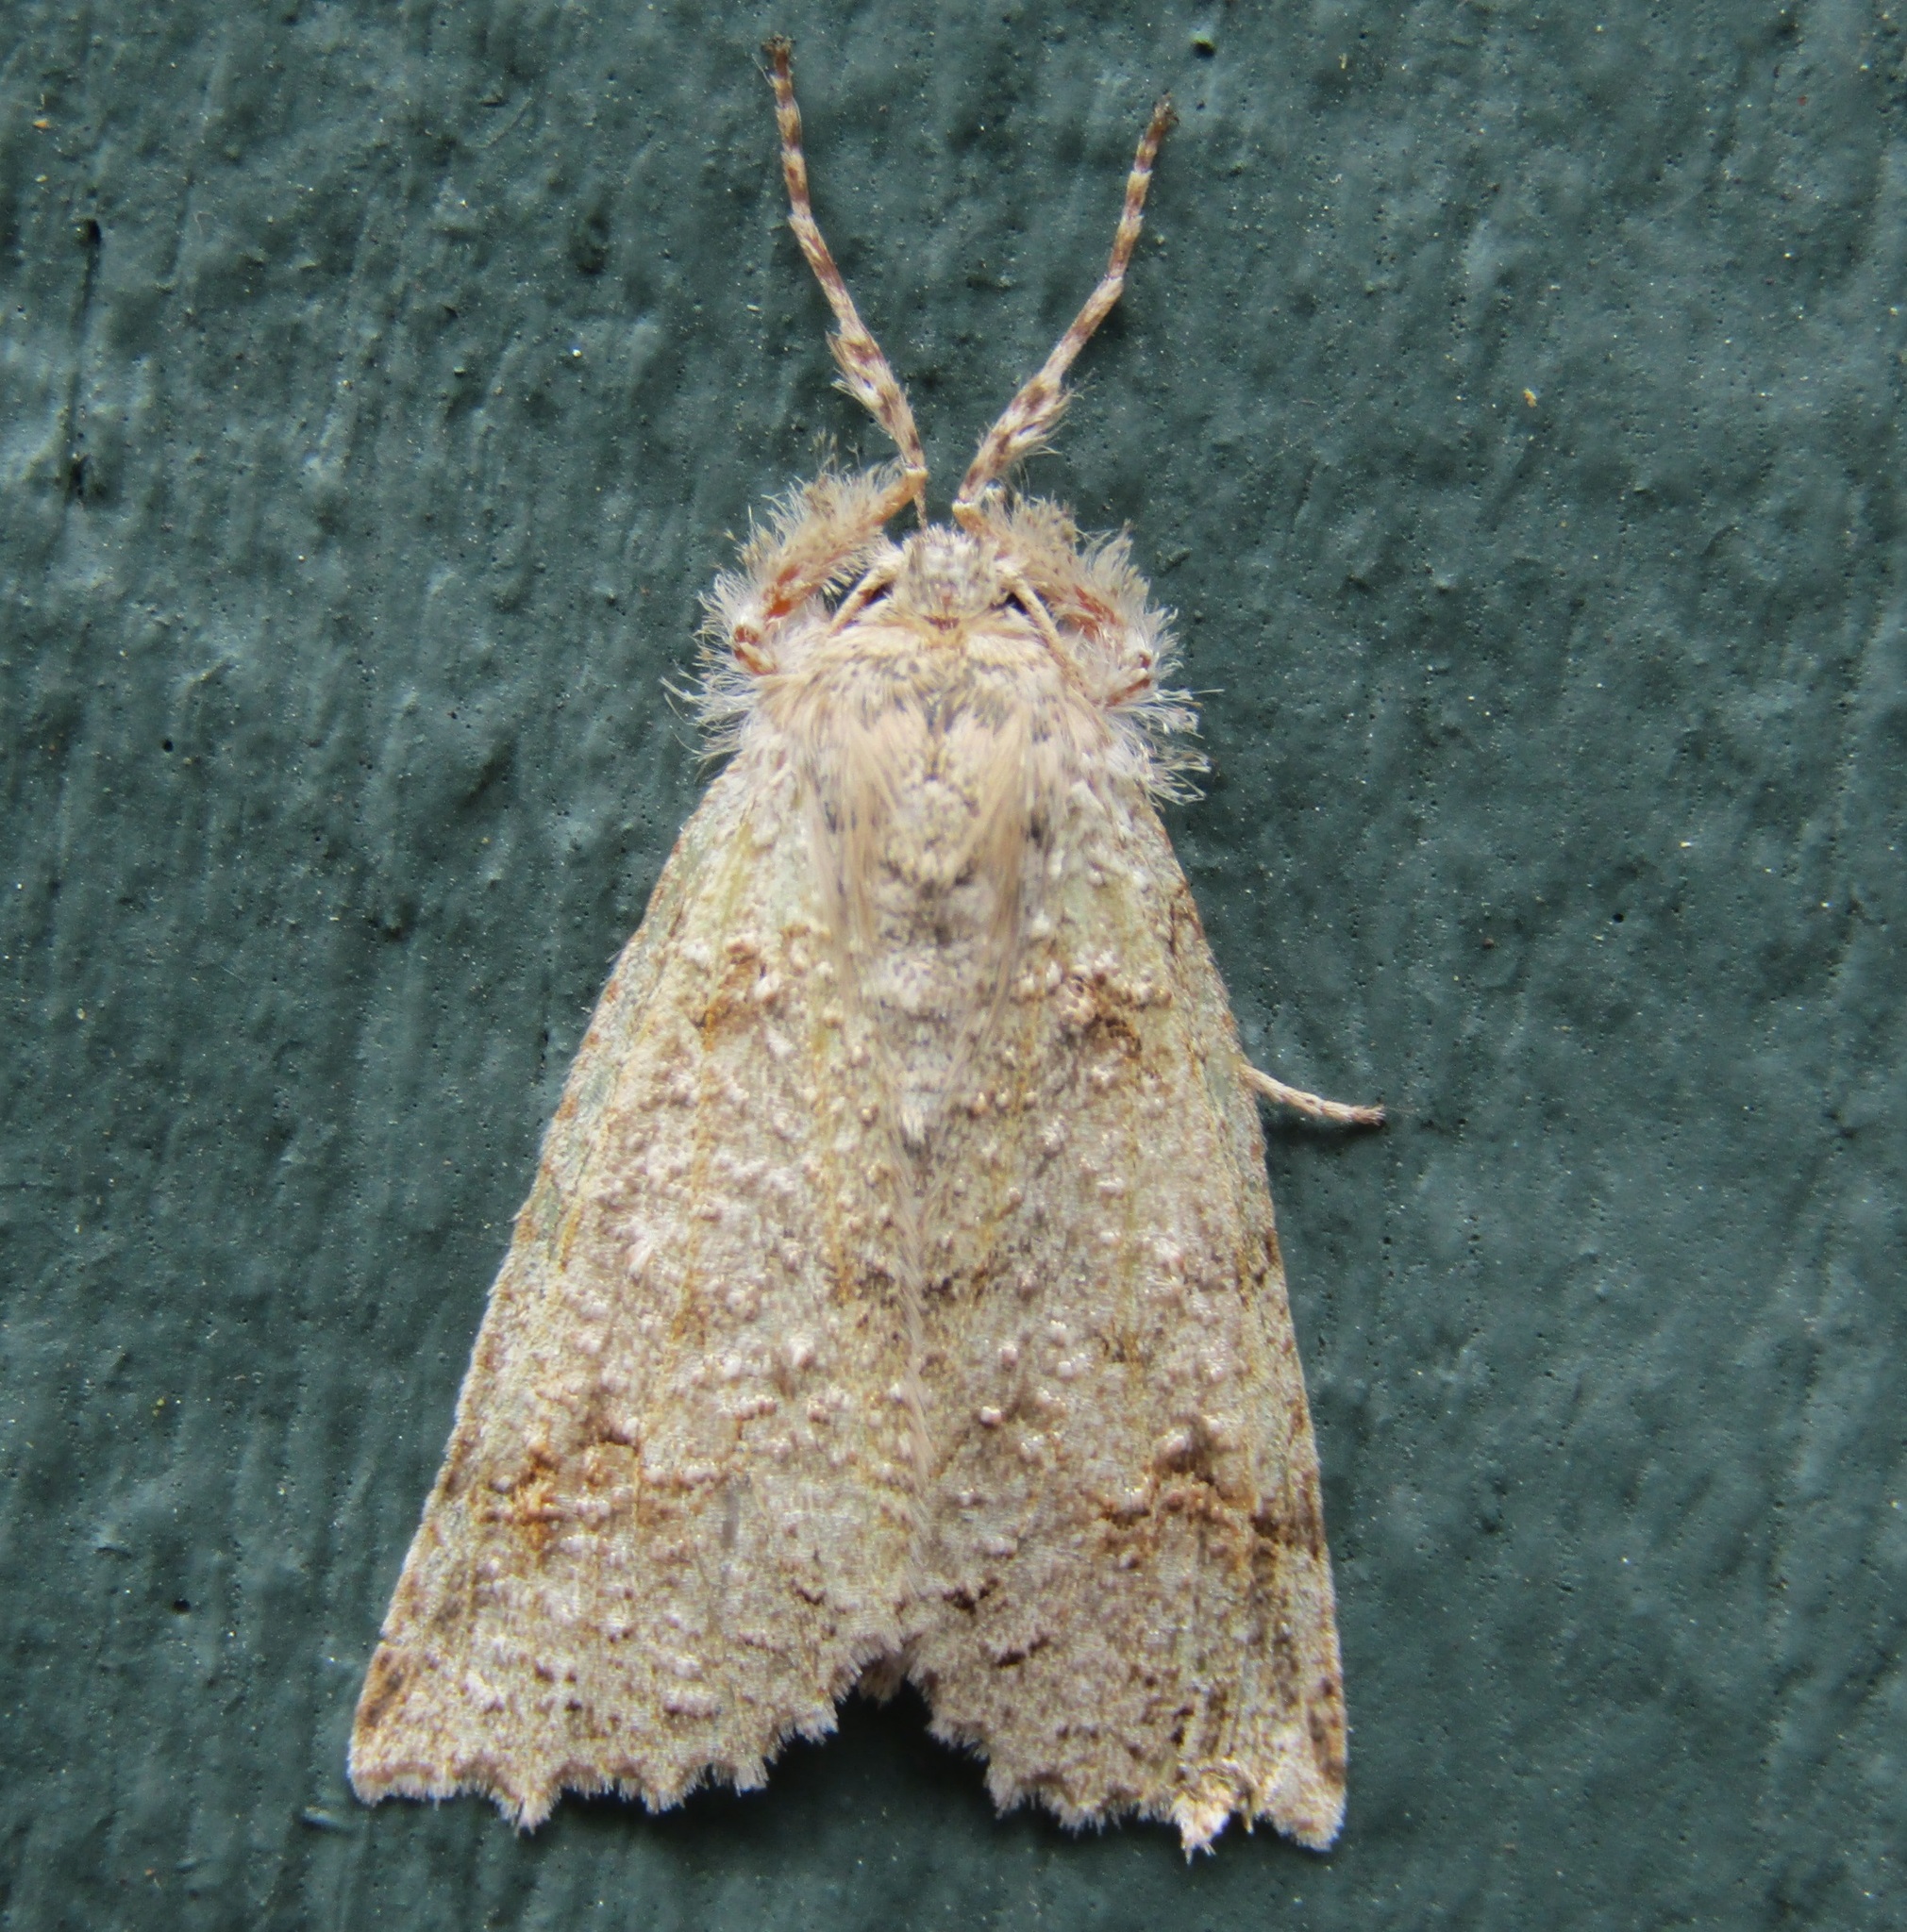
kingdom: Animalia
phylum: Arthropoda
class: Insecta
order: Lepidoptera
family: Geometridae
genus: Declana
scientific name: Declana floccosa
